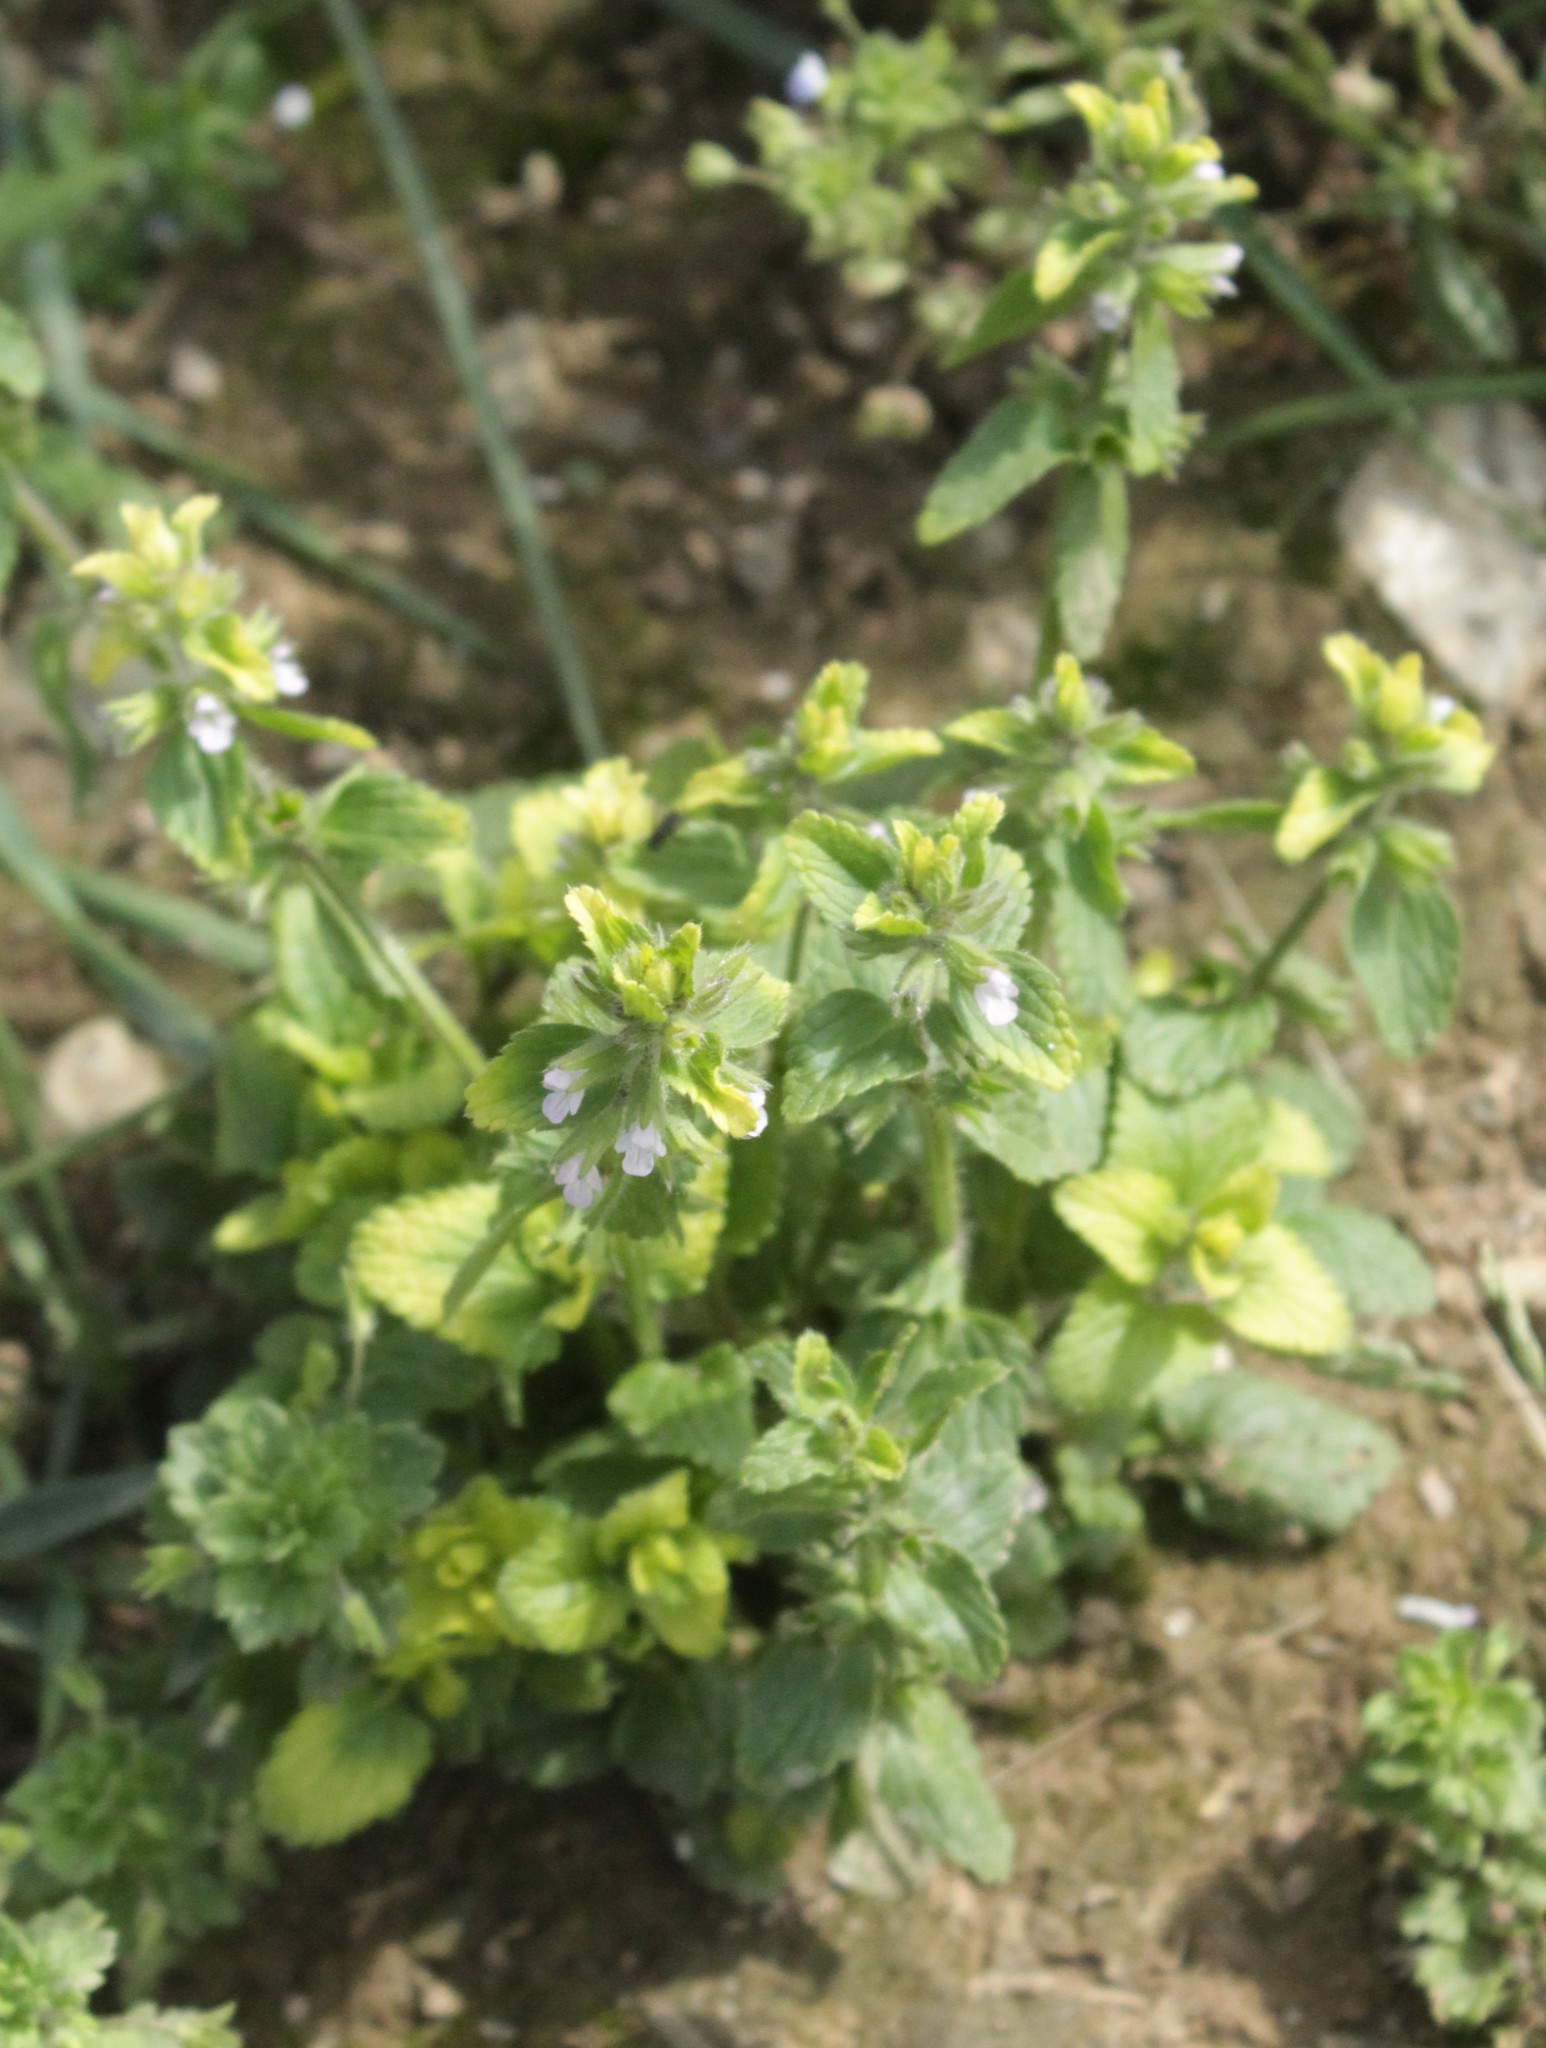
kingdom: Plantae
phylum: Tracheophyta
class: Magnoliopsida
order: Lamiales
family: Lamiaceae
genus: Stachys
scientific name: Stachys arvensis
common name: Field woundwort
